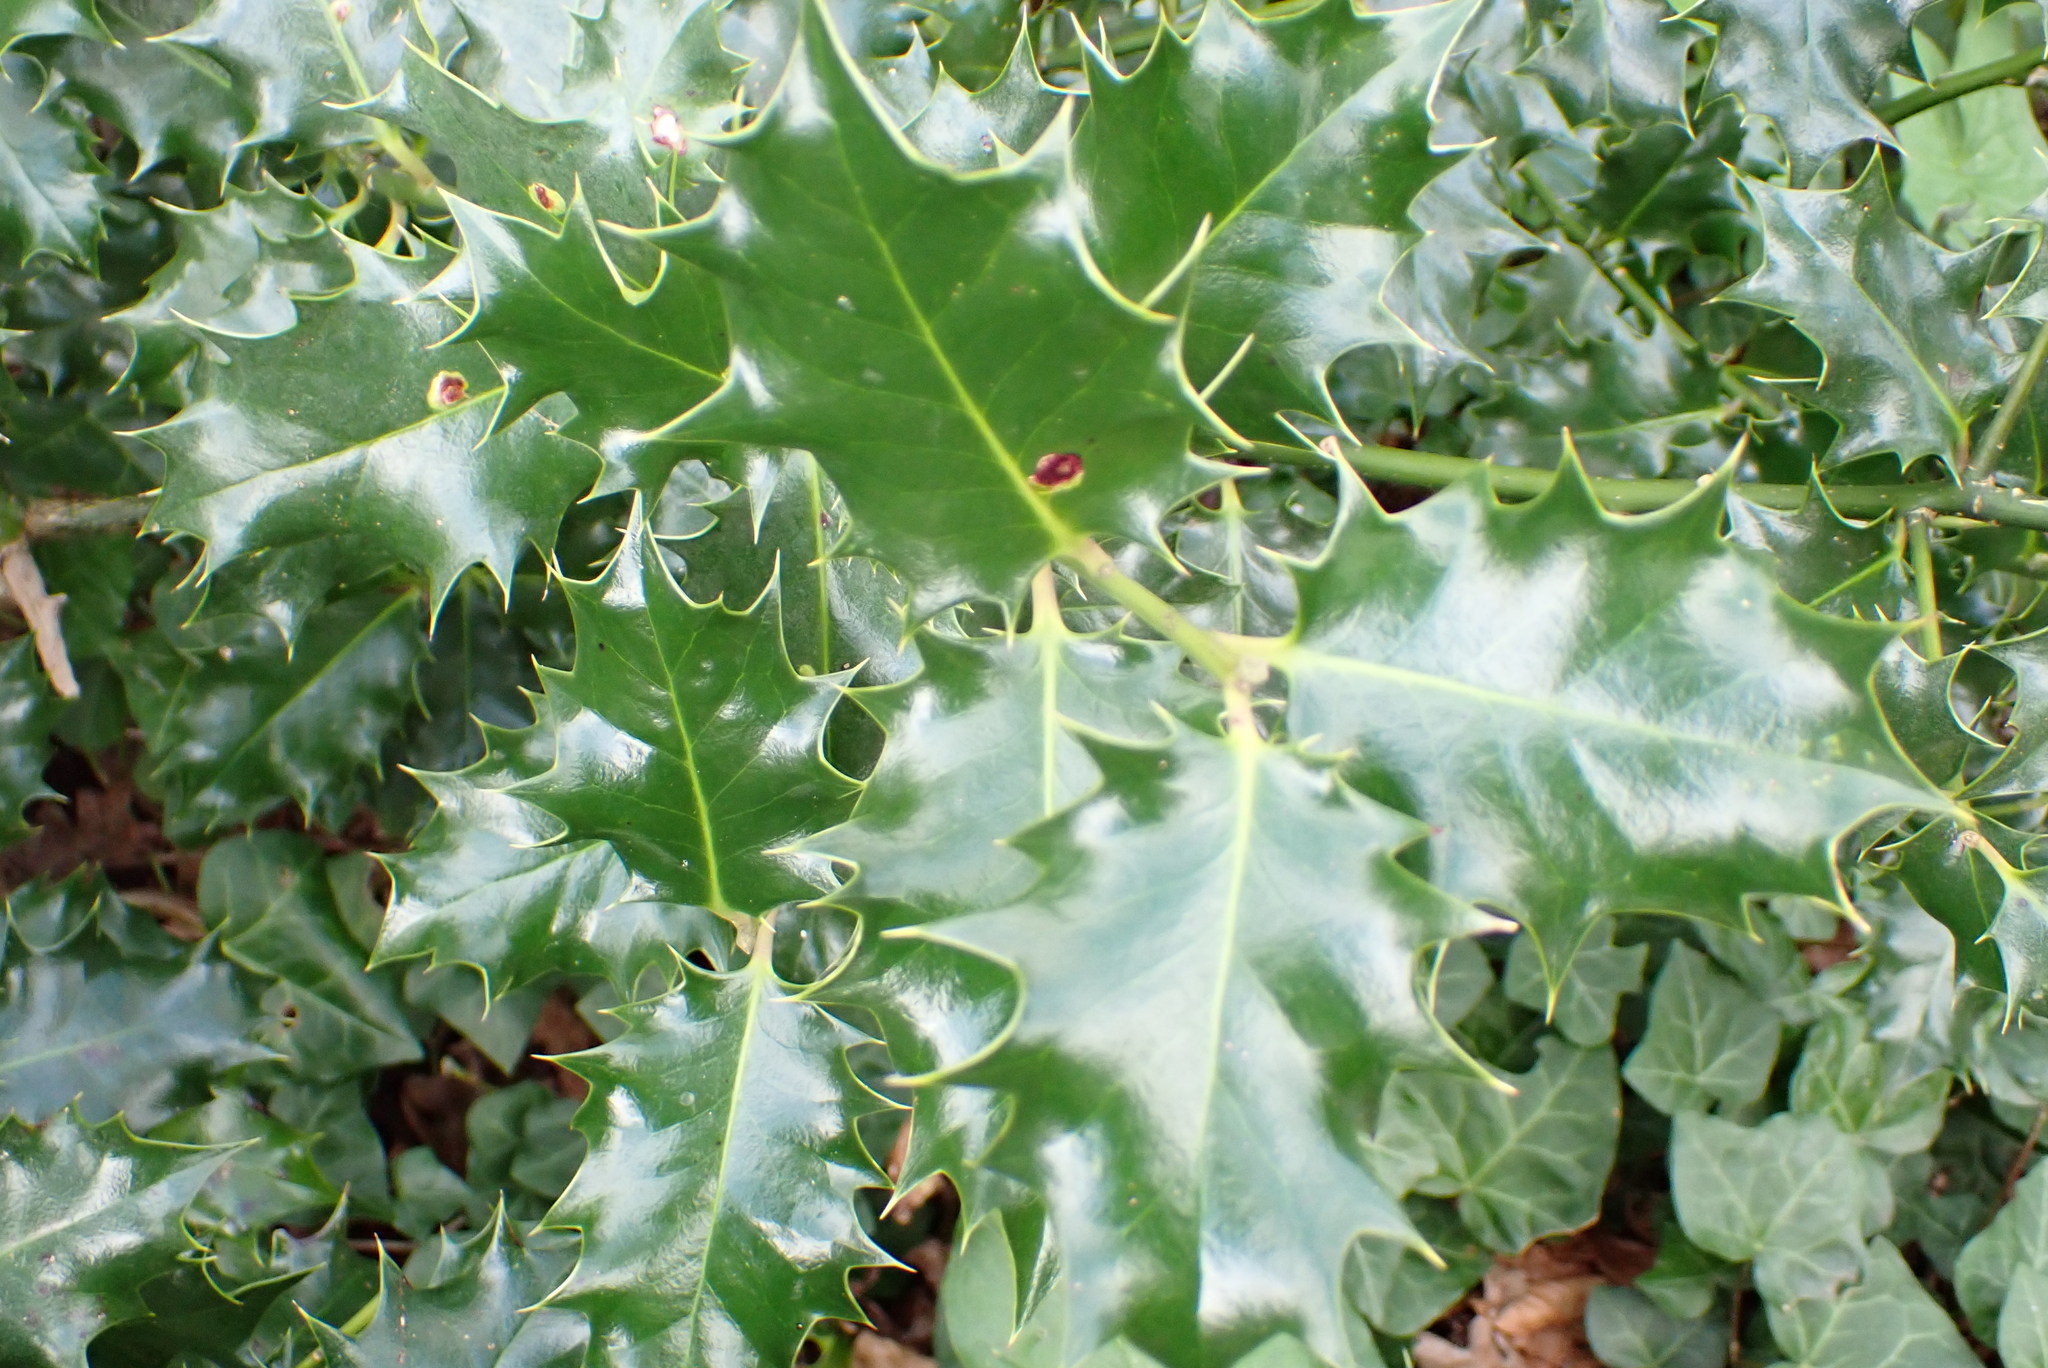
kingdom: Plantae
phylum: Tracheophyta
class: Magnoliopsida
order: Aquifoliales
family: Aquifoliaceae
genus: Ilex
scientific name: Ilex aquifolium
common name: English holly
